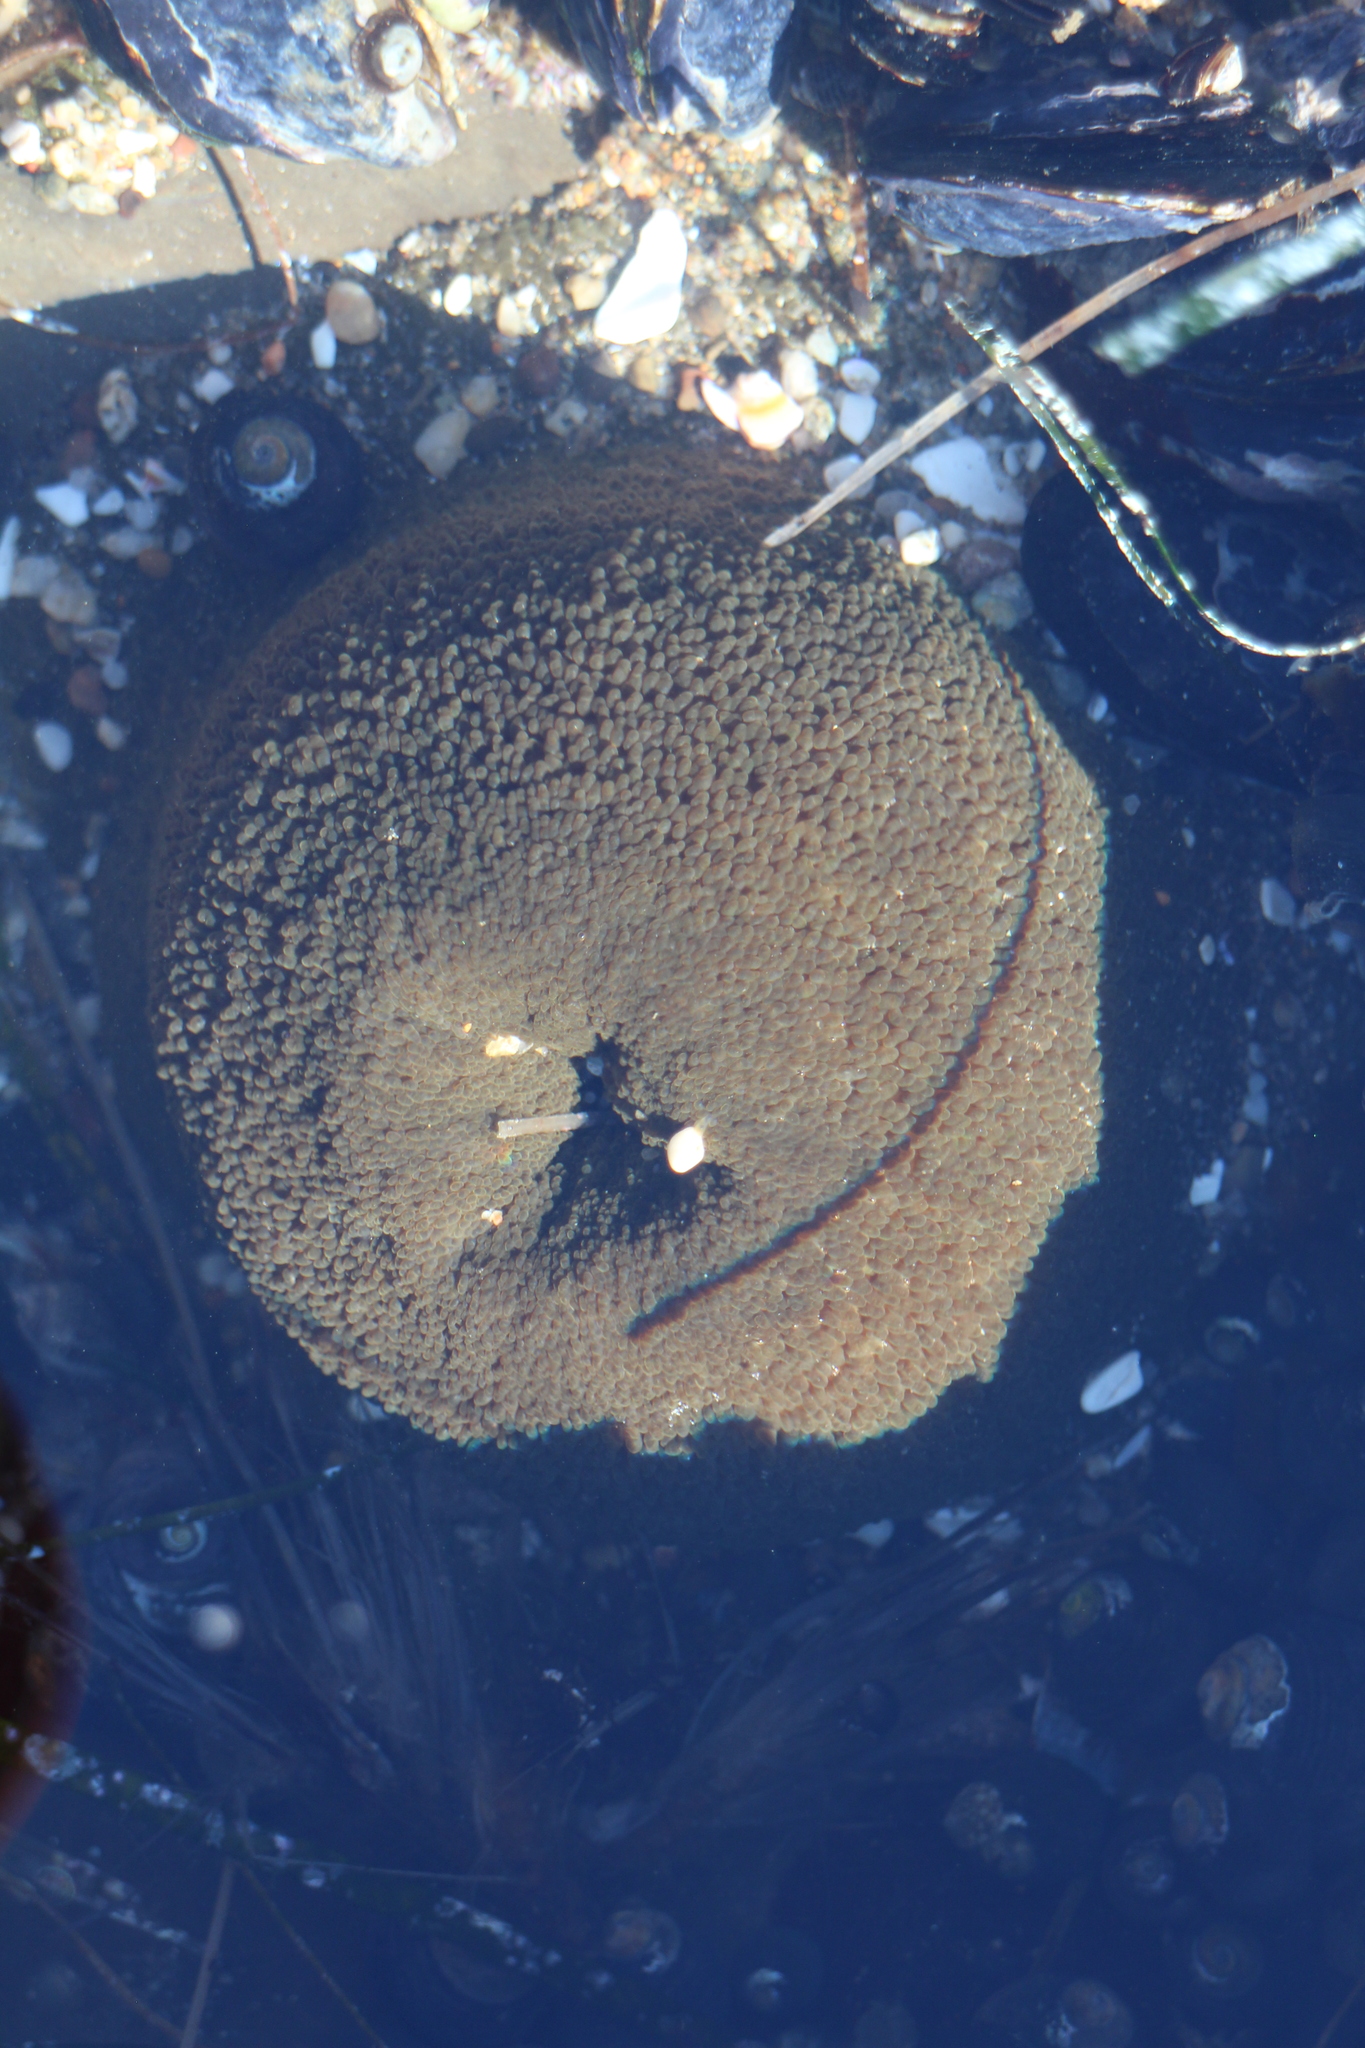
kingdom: Animalia
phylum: Cnidaria
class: Anthozoa
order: Actiniaria
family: Actiniidae
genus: Anthopleura
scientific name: Anthopleura xanthogrammica
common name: Giant green anemone
